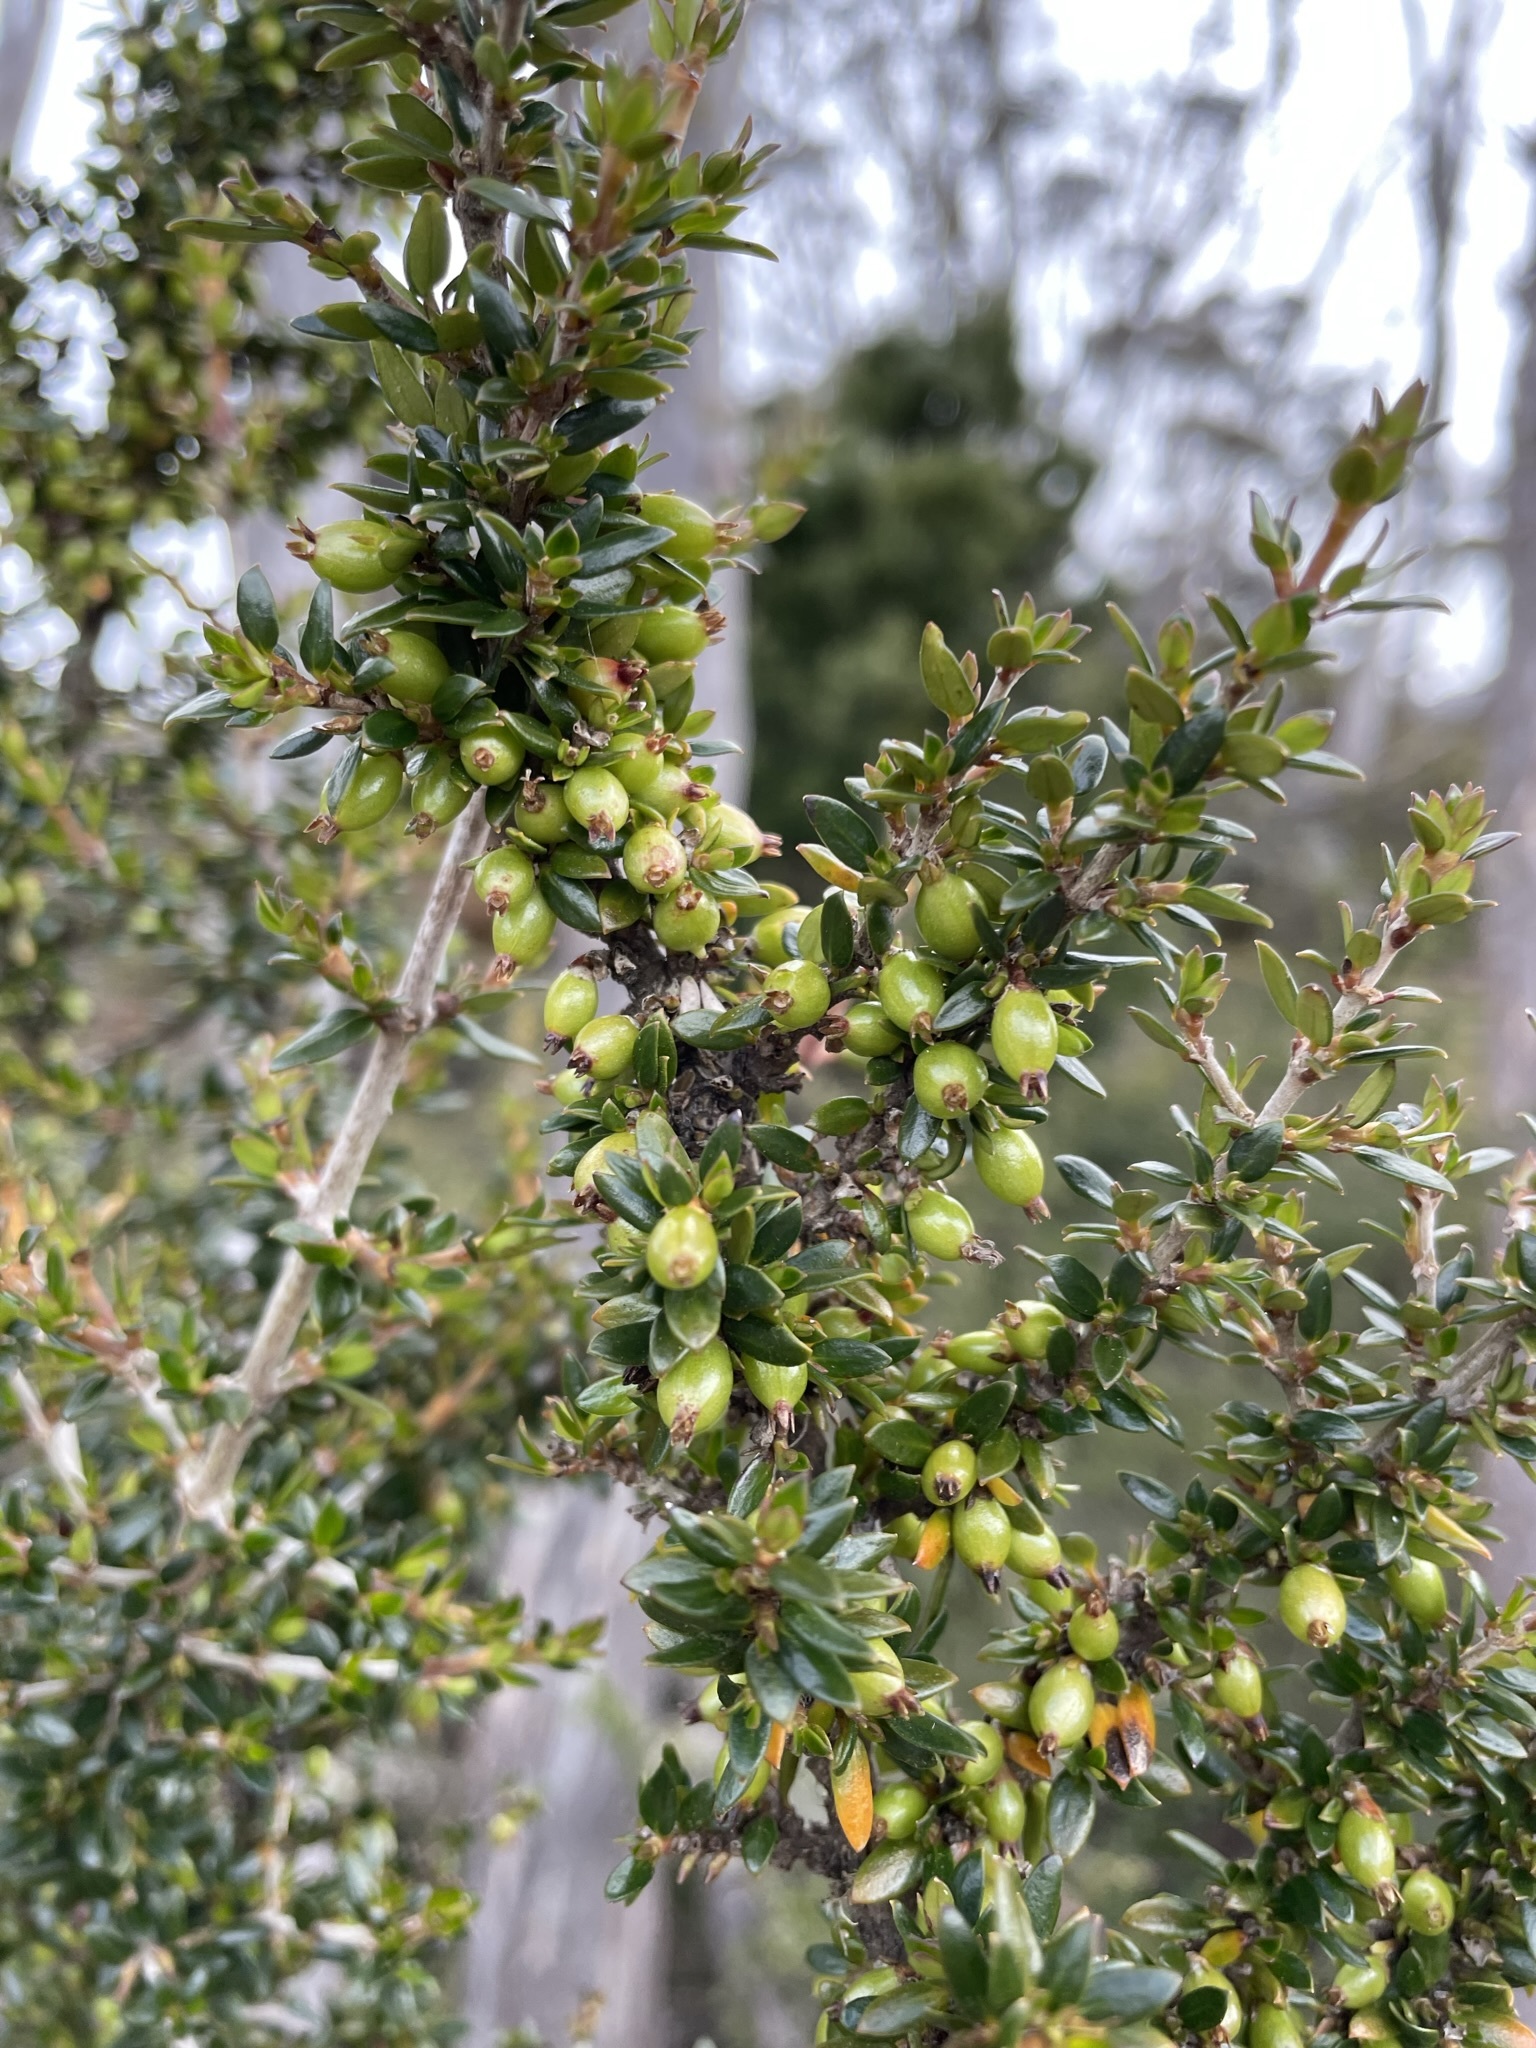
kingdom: Plantae
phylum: Tracheophyta
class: Magnoliopsida
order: Gentianales
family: Rubiaceae
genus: Coprosma
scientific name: Coprosma nitida
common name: Shining coprosma
